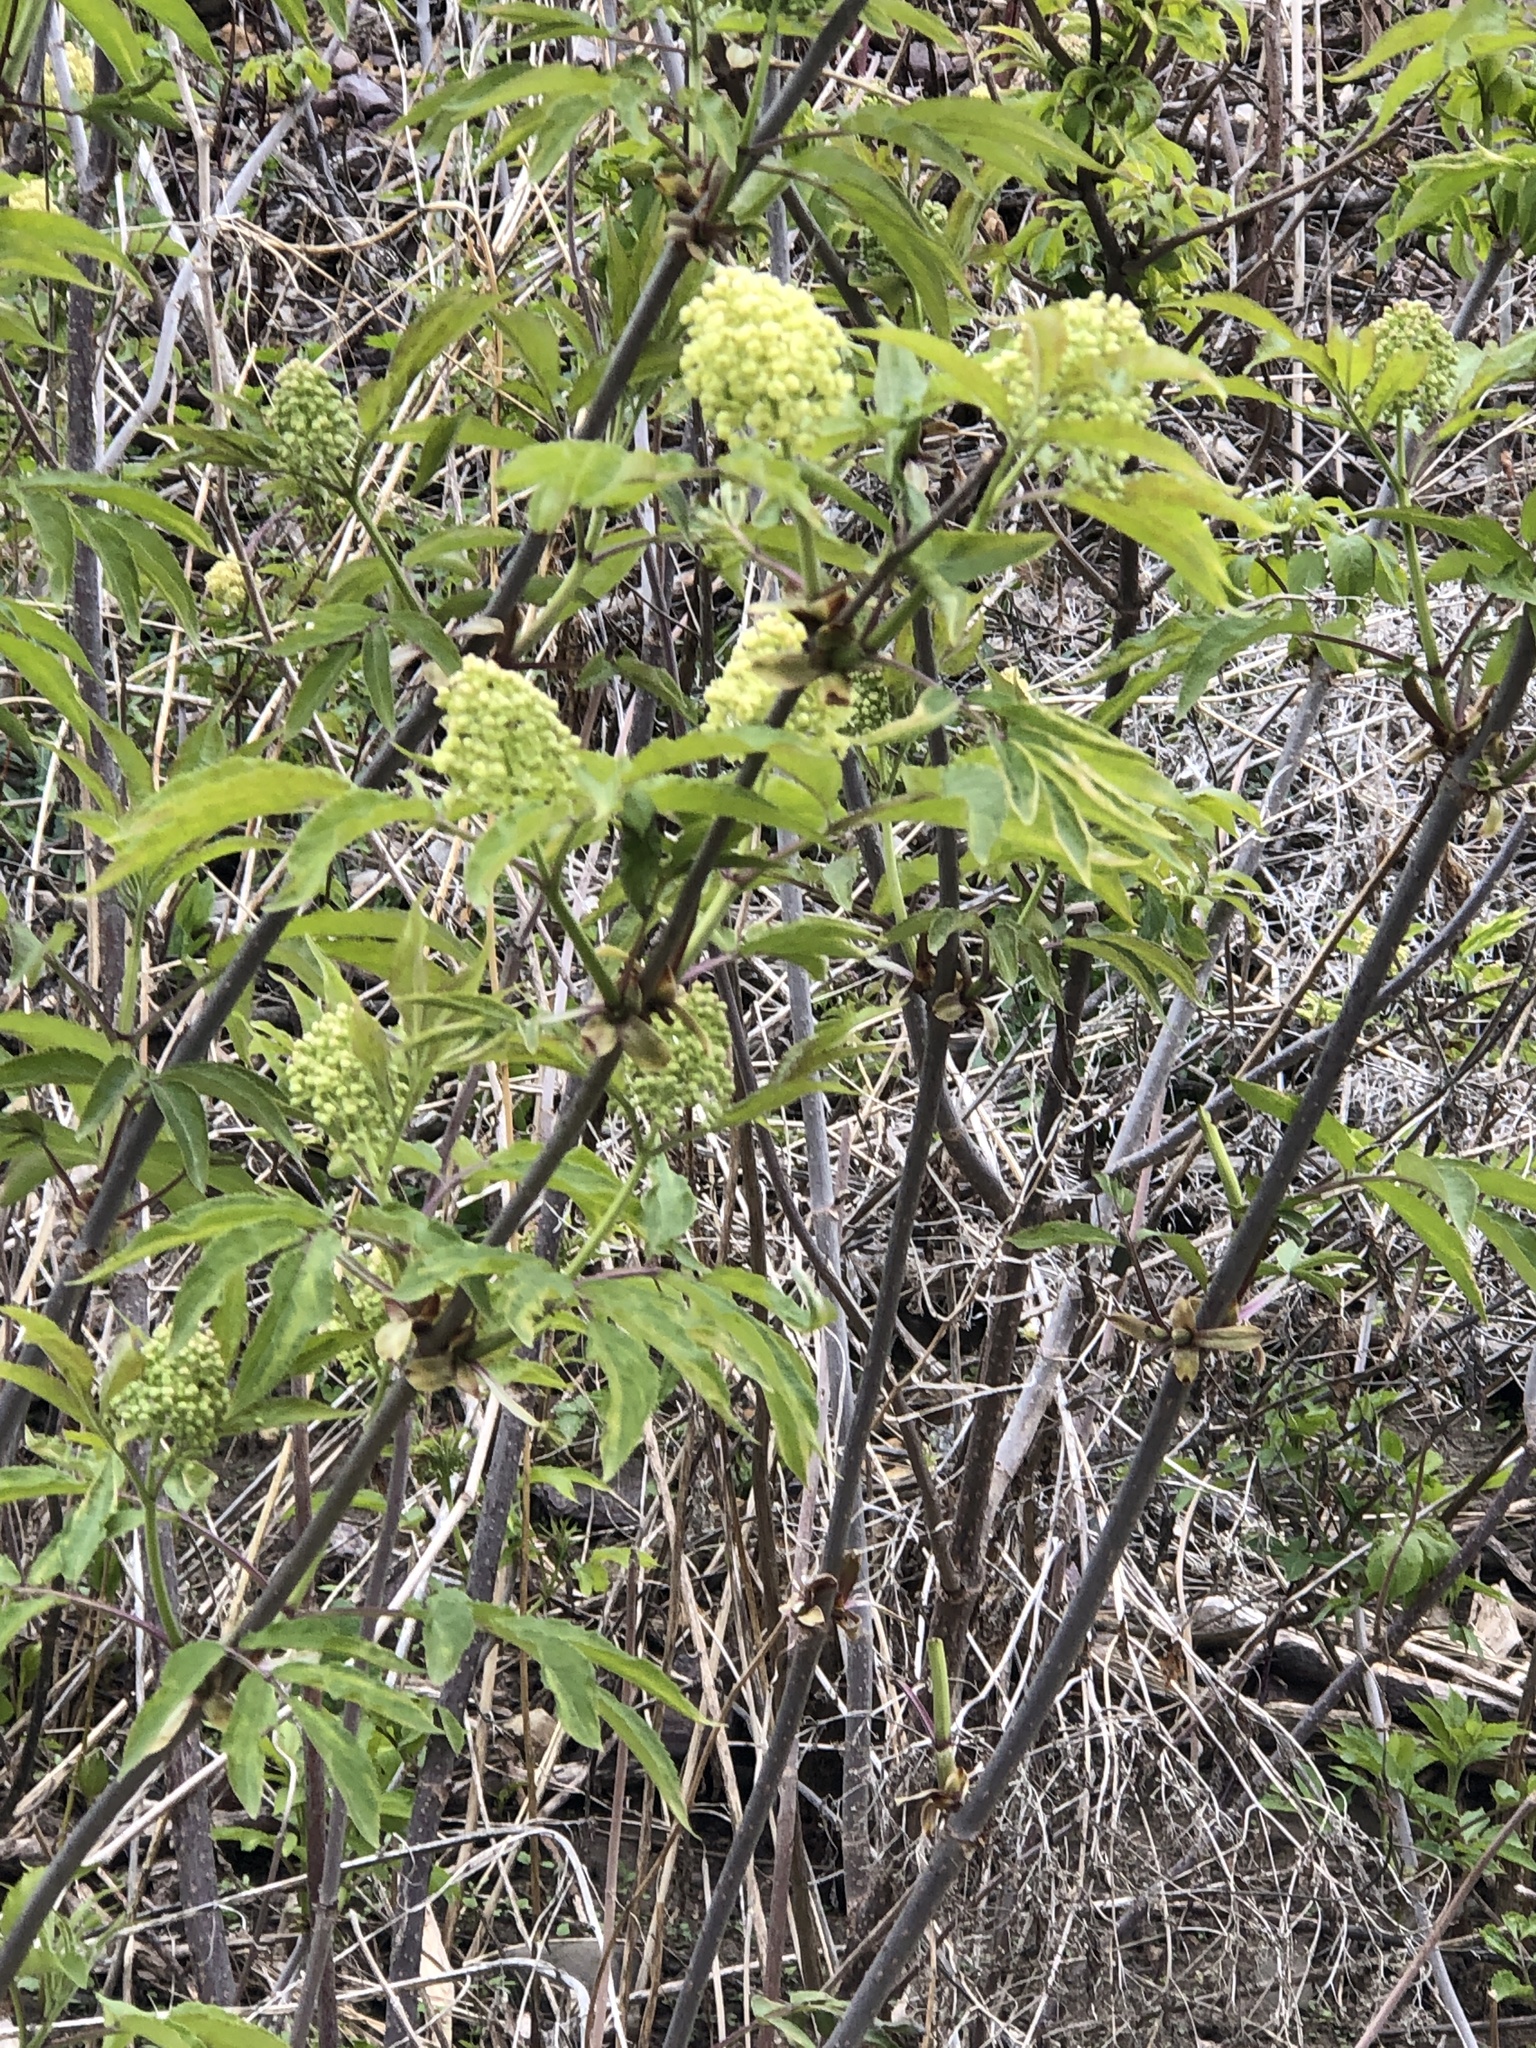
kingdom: Plantae
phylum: Tracheophyta
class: Magnoliopsida
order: Dipsacales
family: Viburnaceae
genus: Sambucus
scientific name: Sambucus racemosa
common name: Red-berried elder
